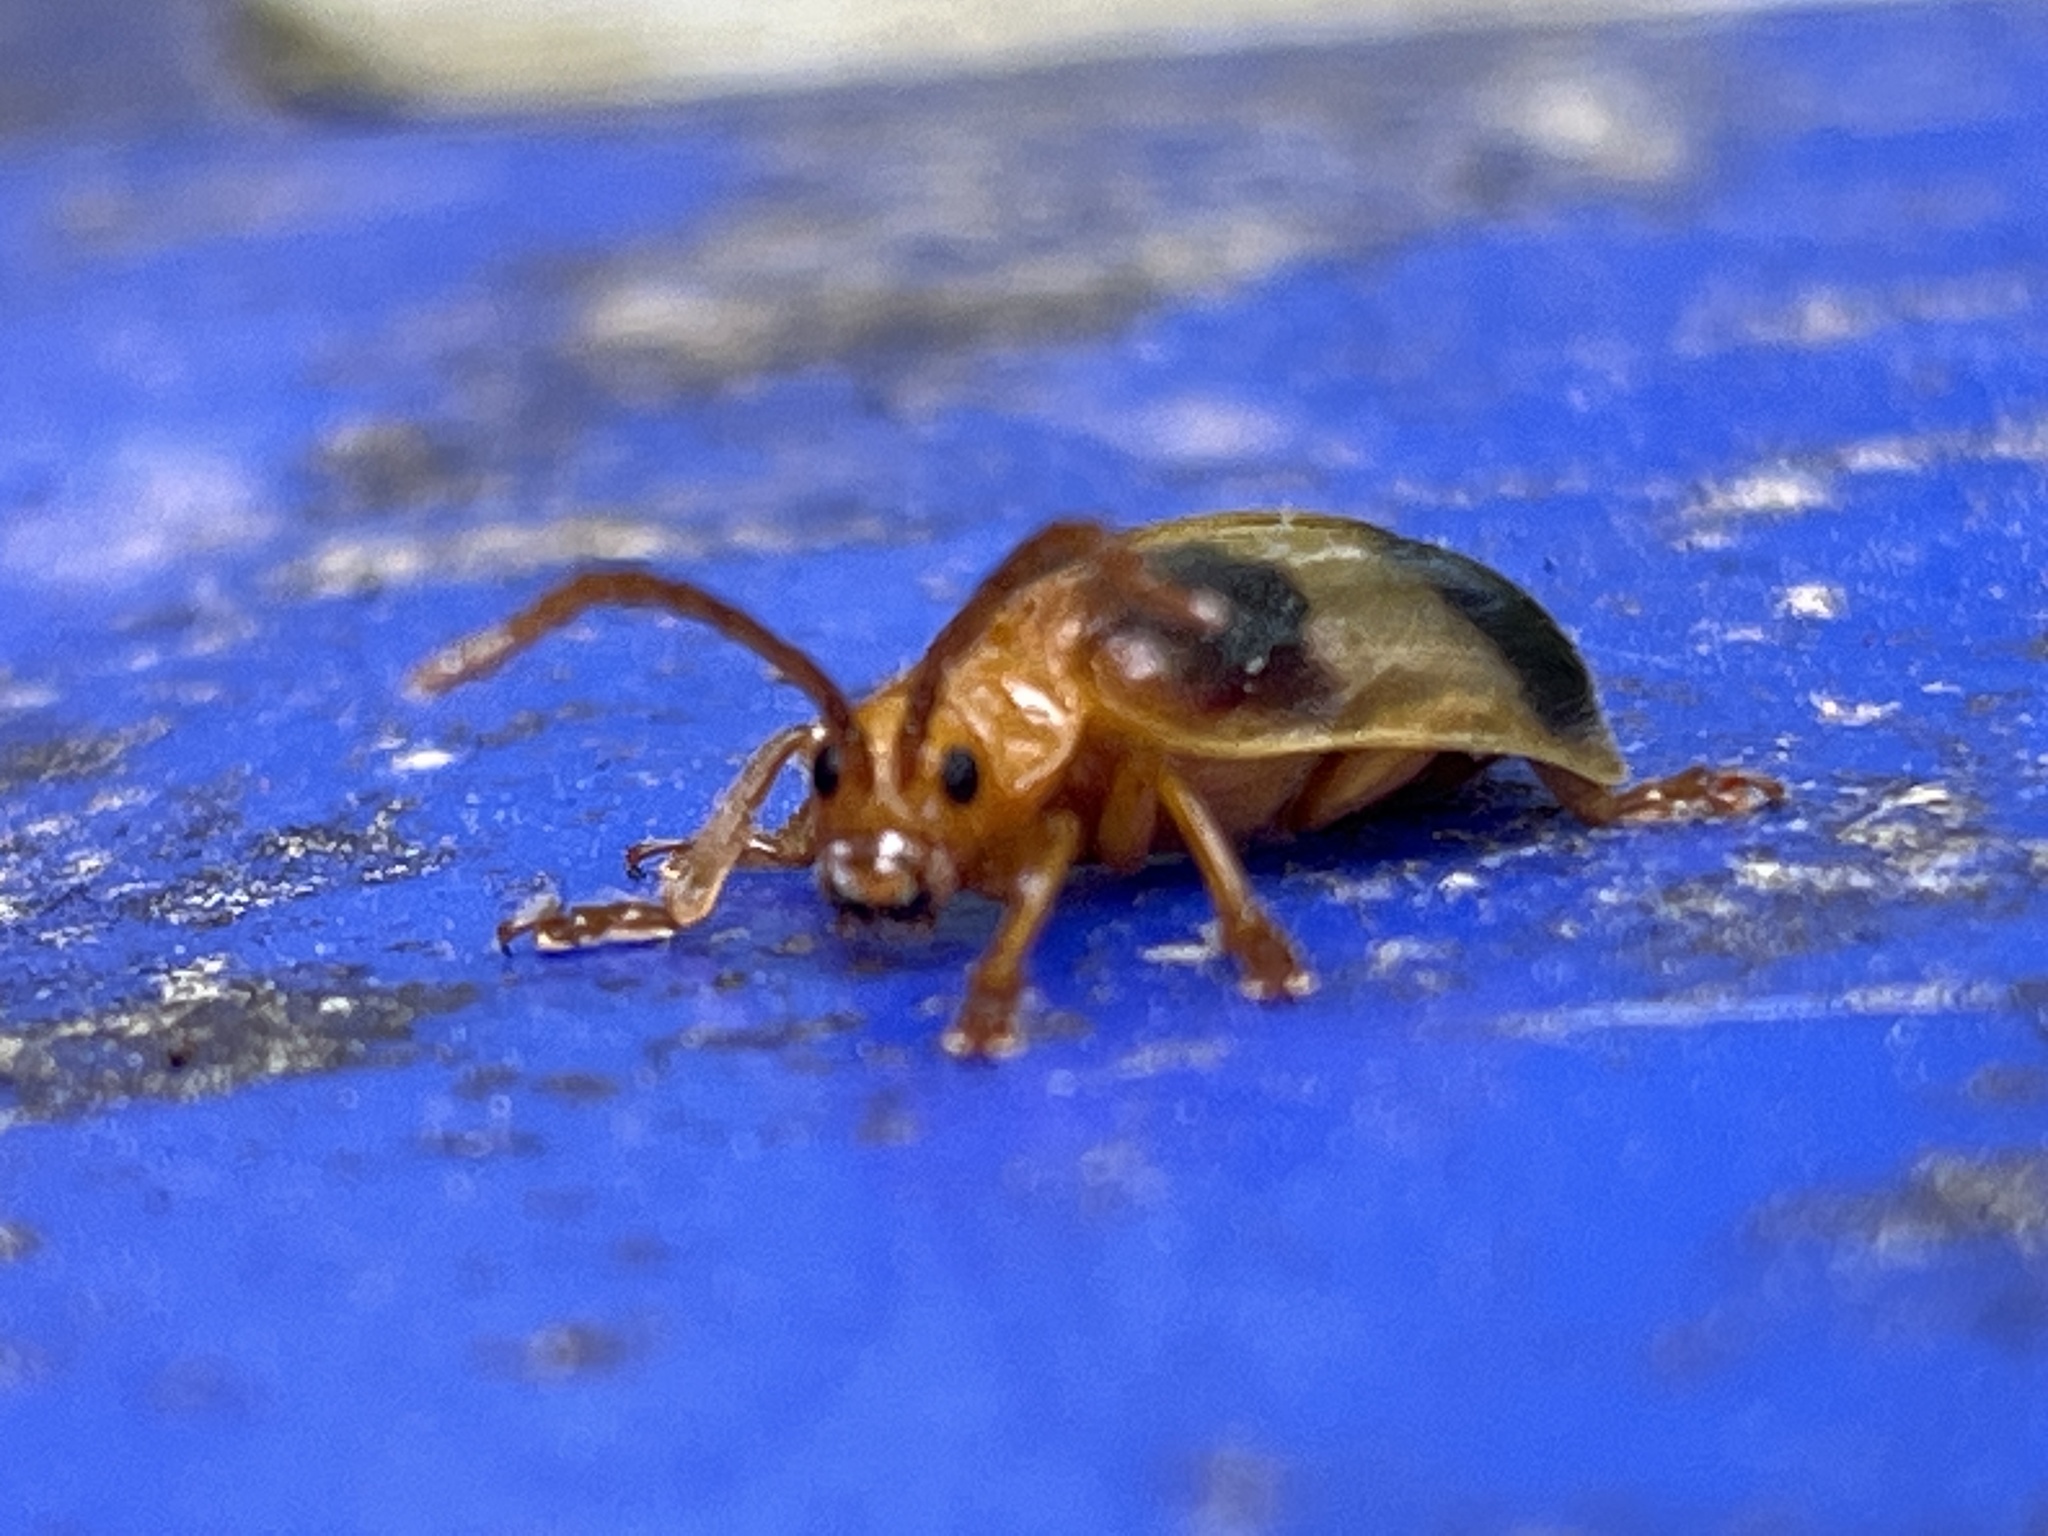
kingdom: Animalia
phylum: Arthropoda
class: Insecta
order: Coleoptera
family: Chrysomelidae
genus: Monocesta
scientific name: Monocesta coryli
